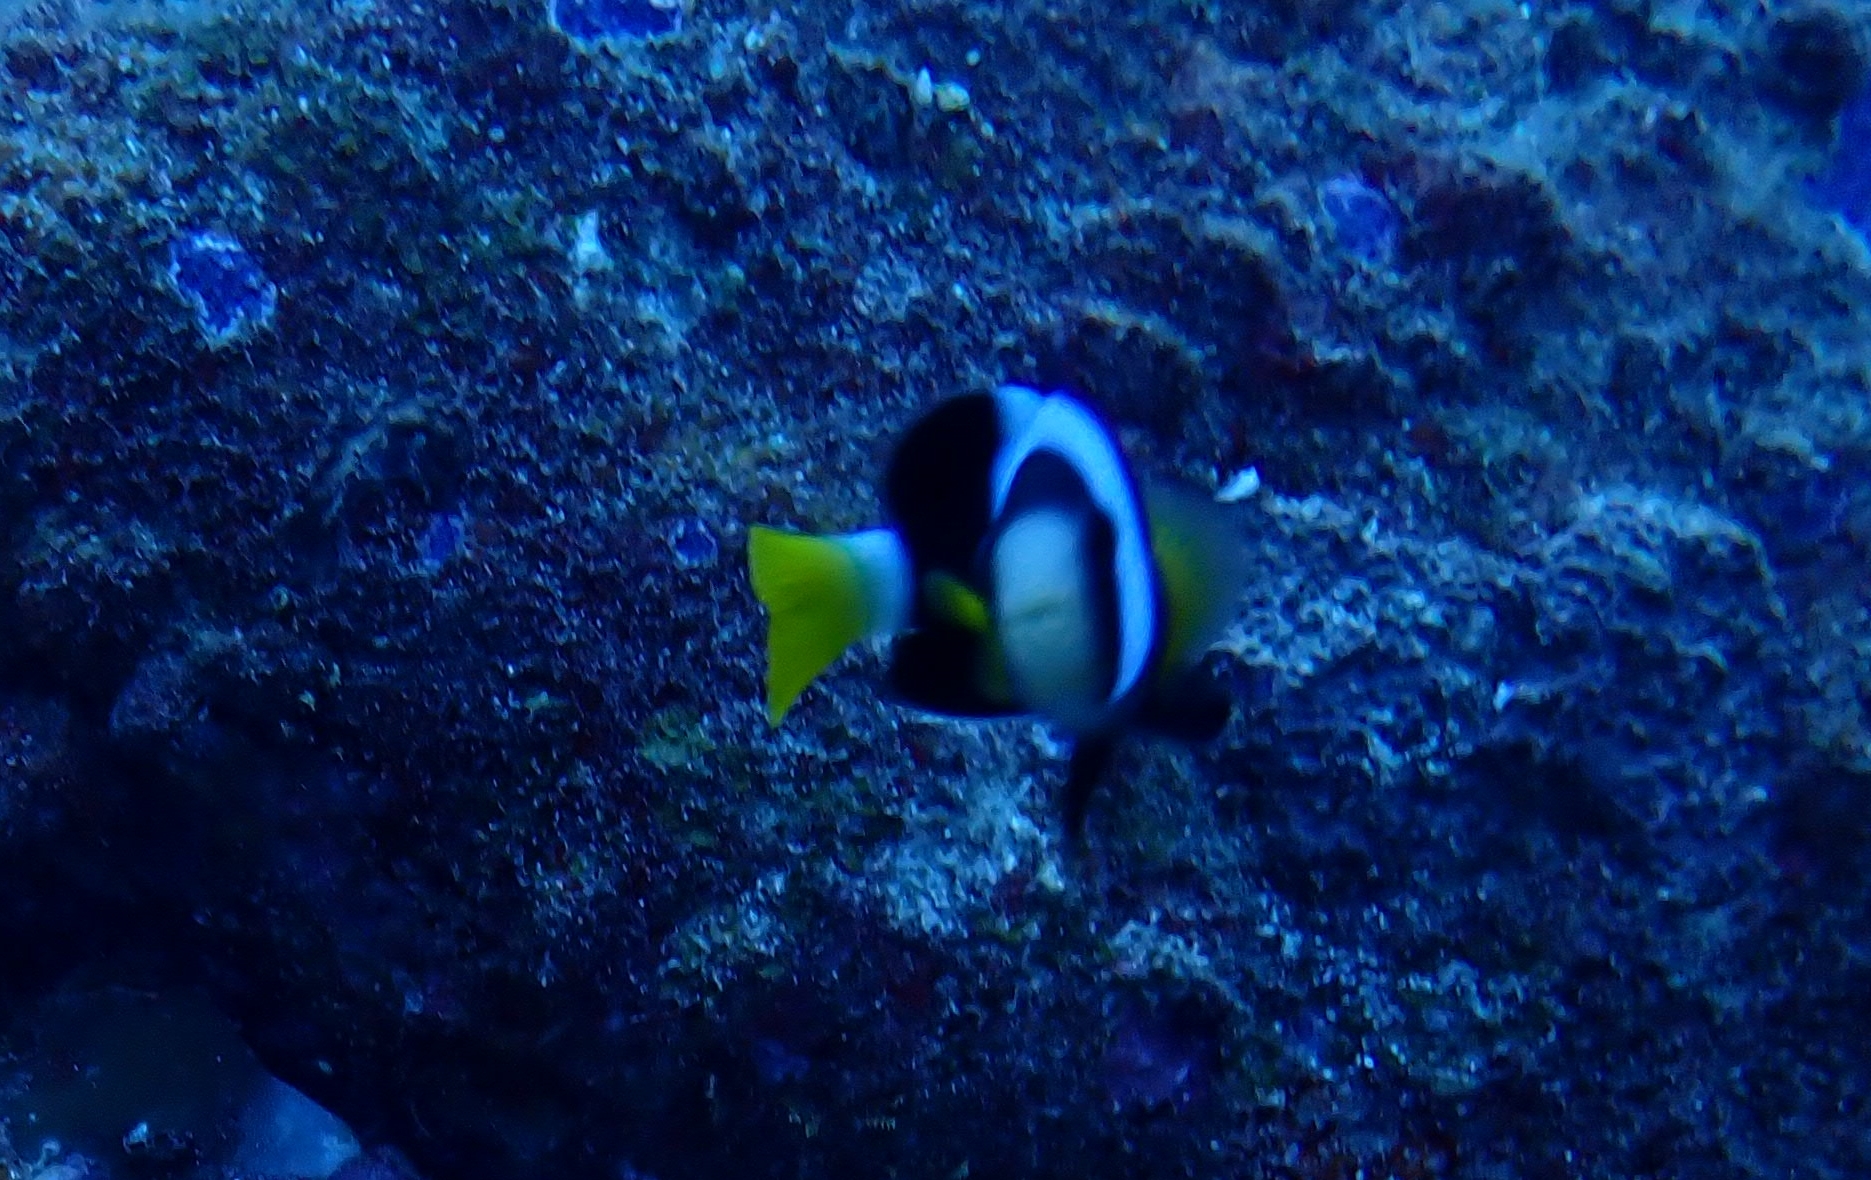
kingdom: Animalia
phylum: Chordata
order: Perciformes
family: Pomacentridae
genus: Amphiprion
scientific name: Amphiprion clarkii
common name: Clark's anemonefish
